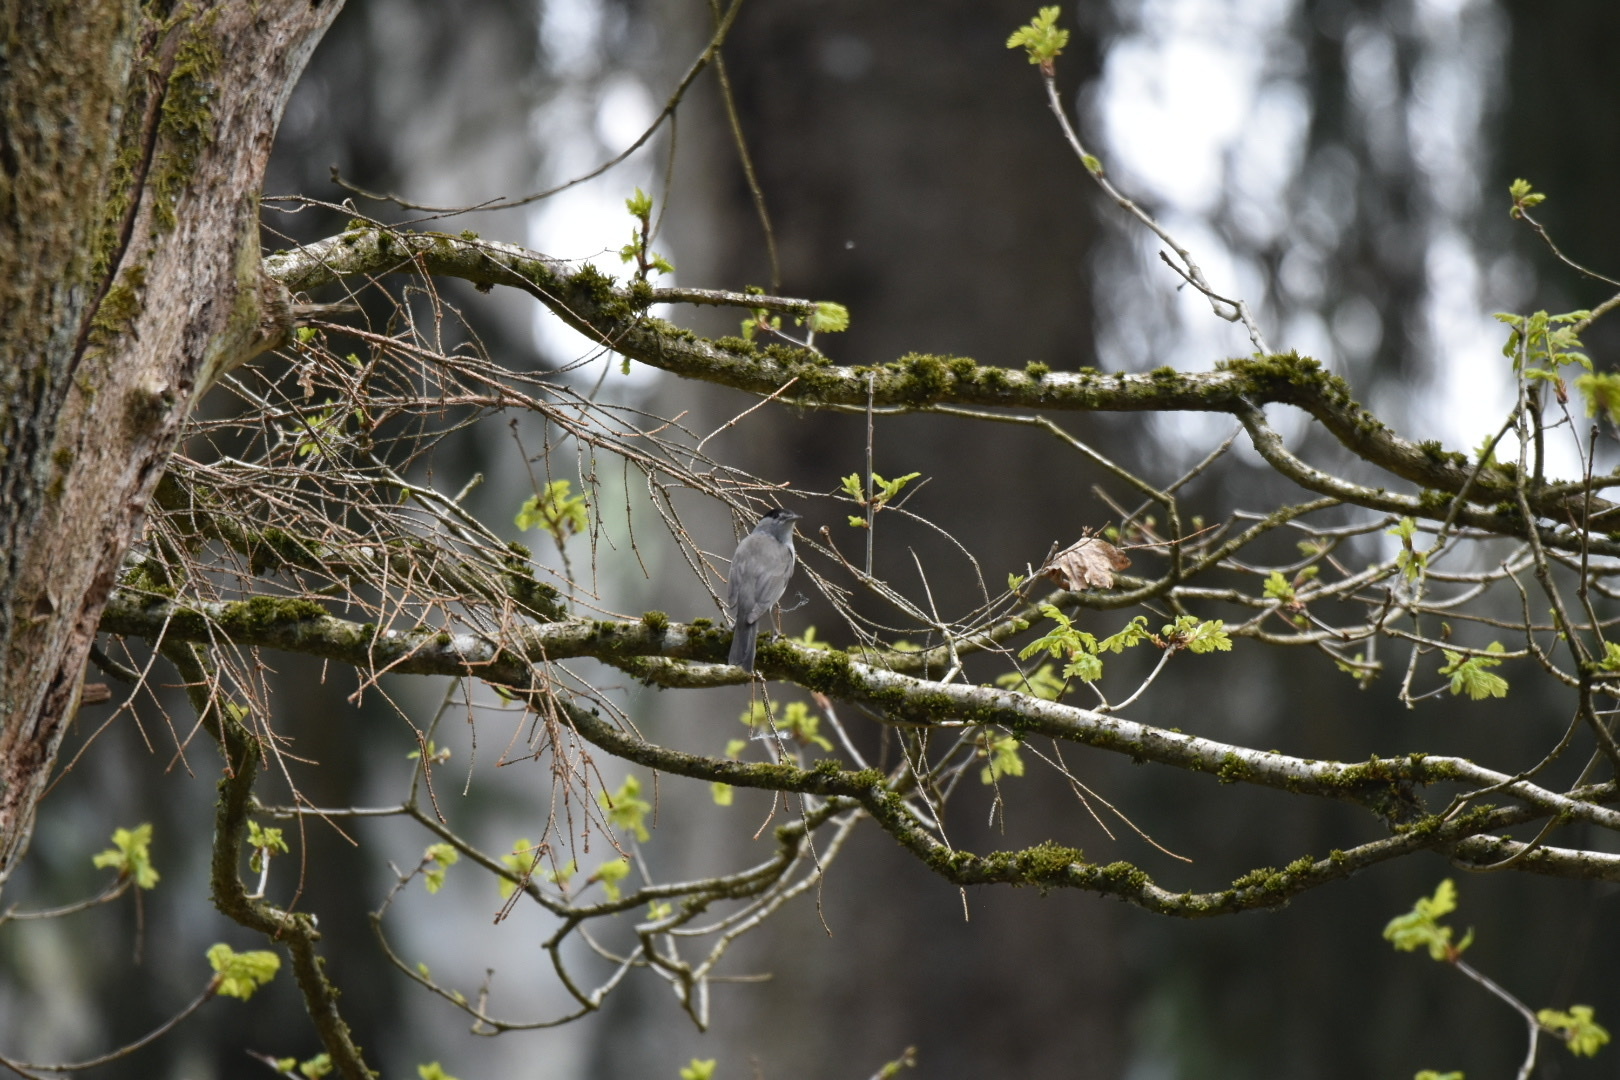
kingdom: Animalia
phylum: Chordata
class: Aves
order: Passeriformes
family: Sylviidae
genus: Sylvia
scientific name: Sylvia atricapilla
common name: Eurasian blackcap
